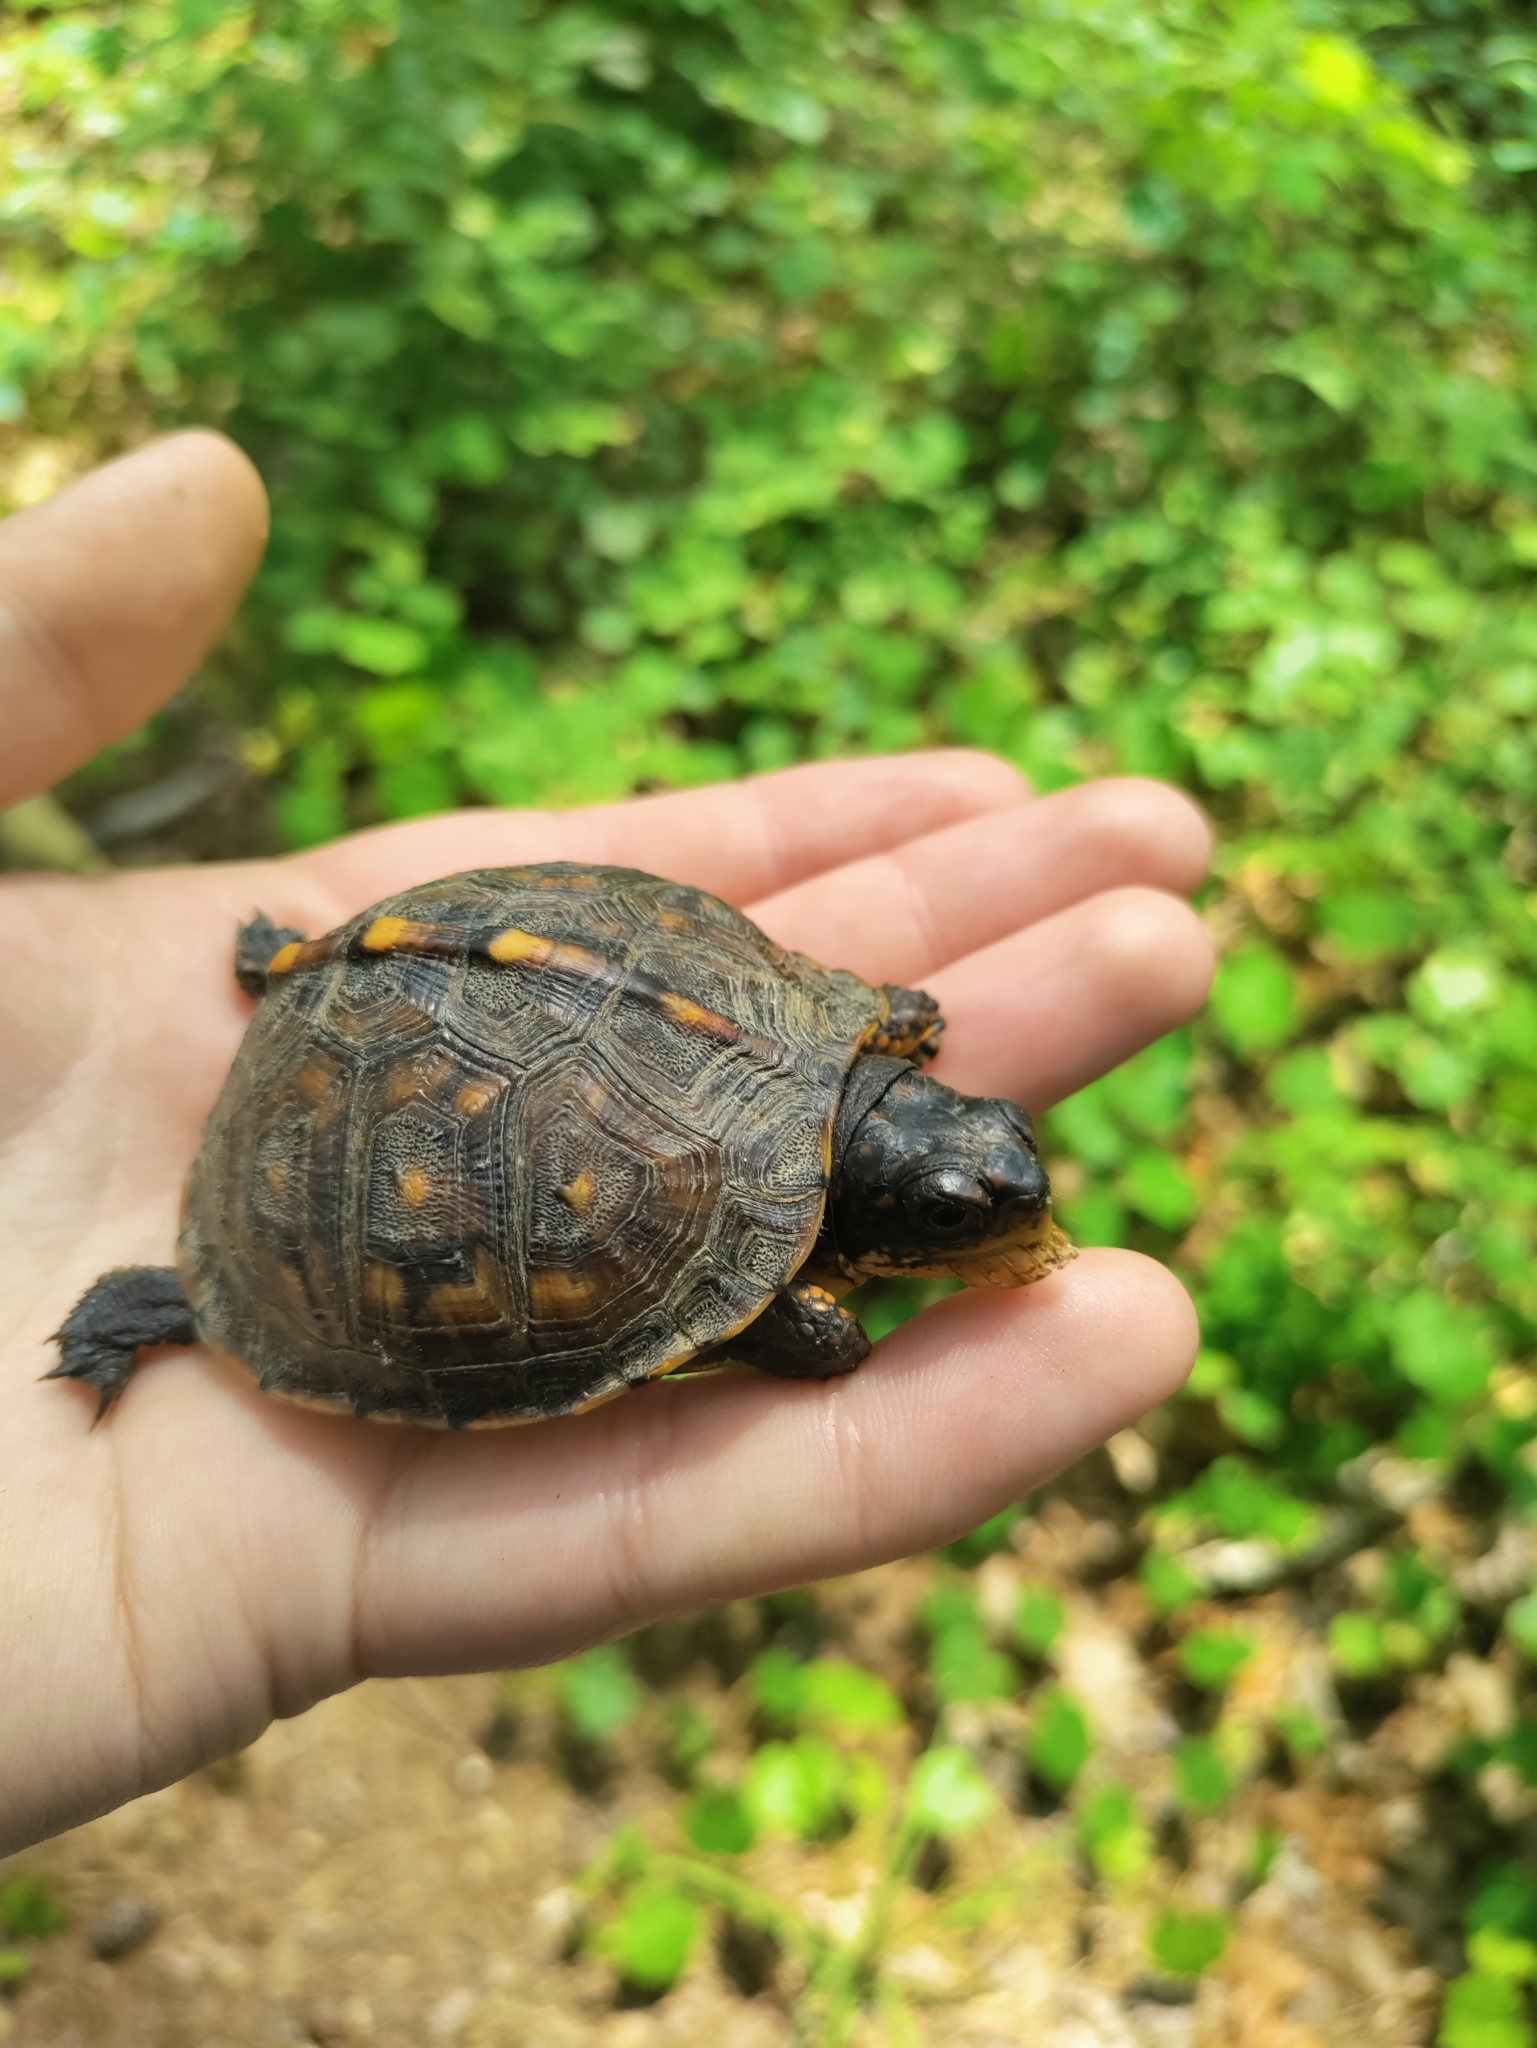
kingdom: Animalia
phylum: Chordata
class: Testudines
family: Emydidae
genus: Terrapene
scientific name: Terrapene carolina
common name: Common box turtle
